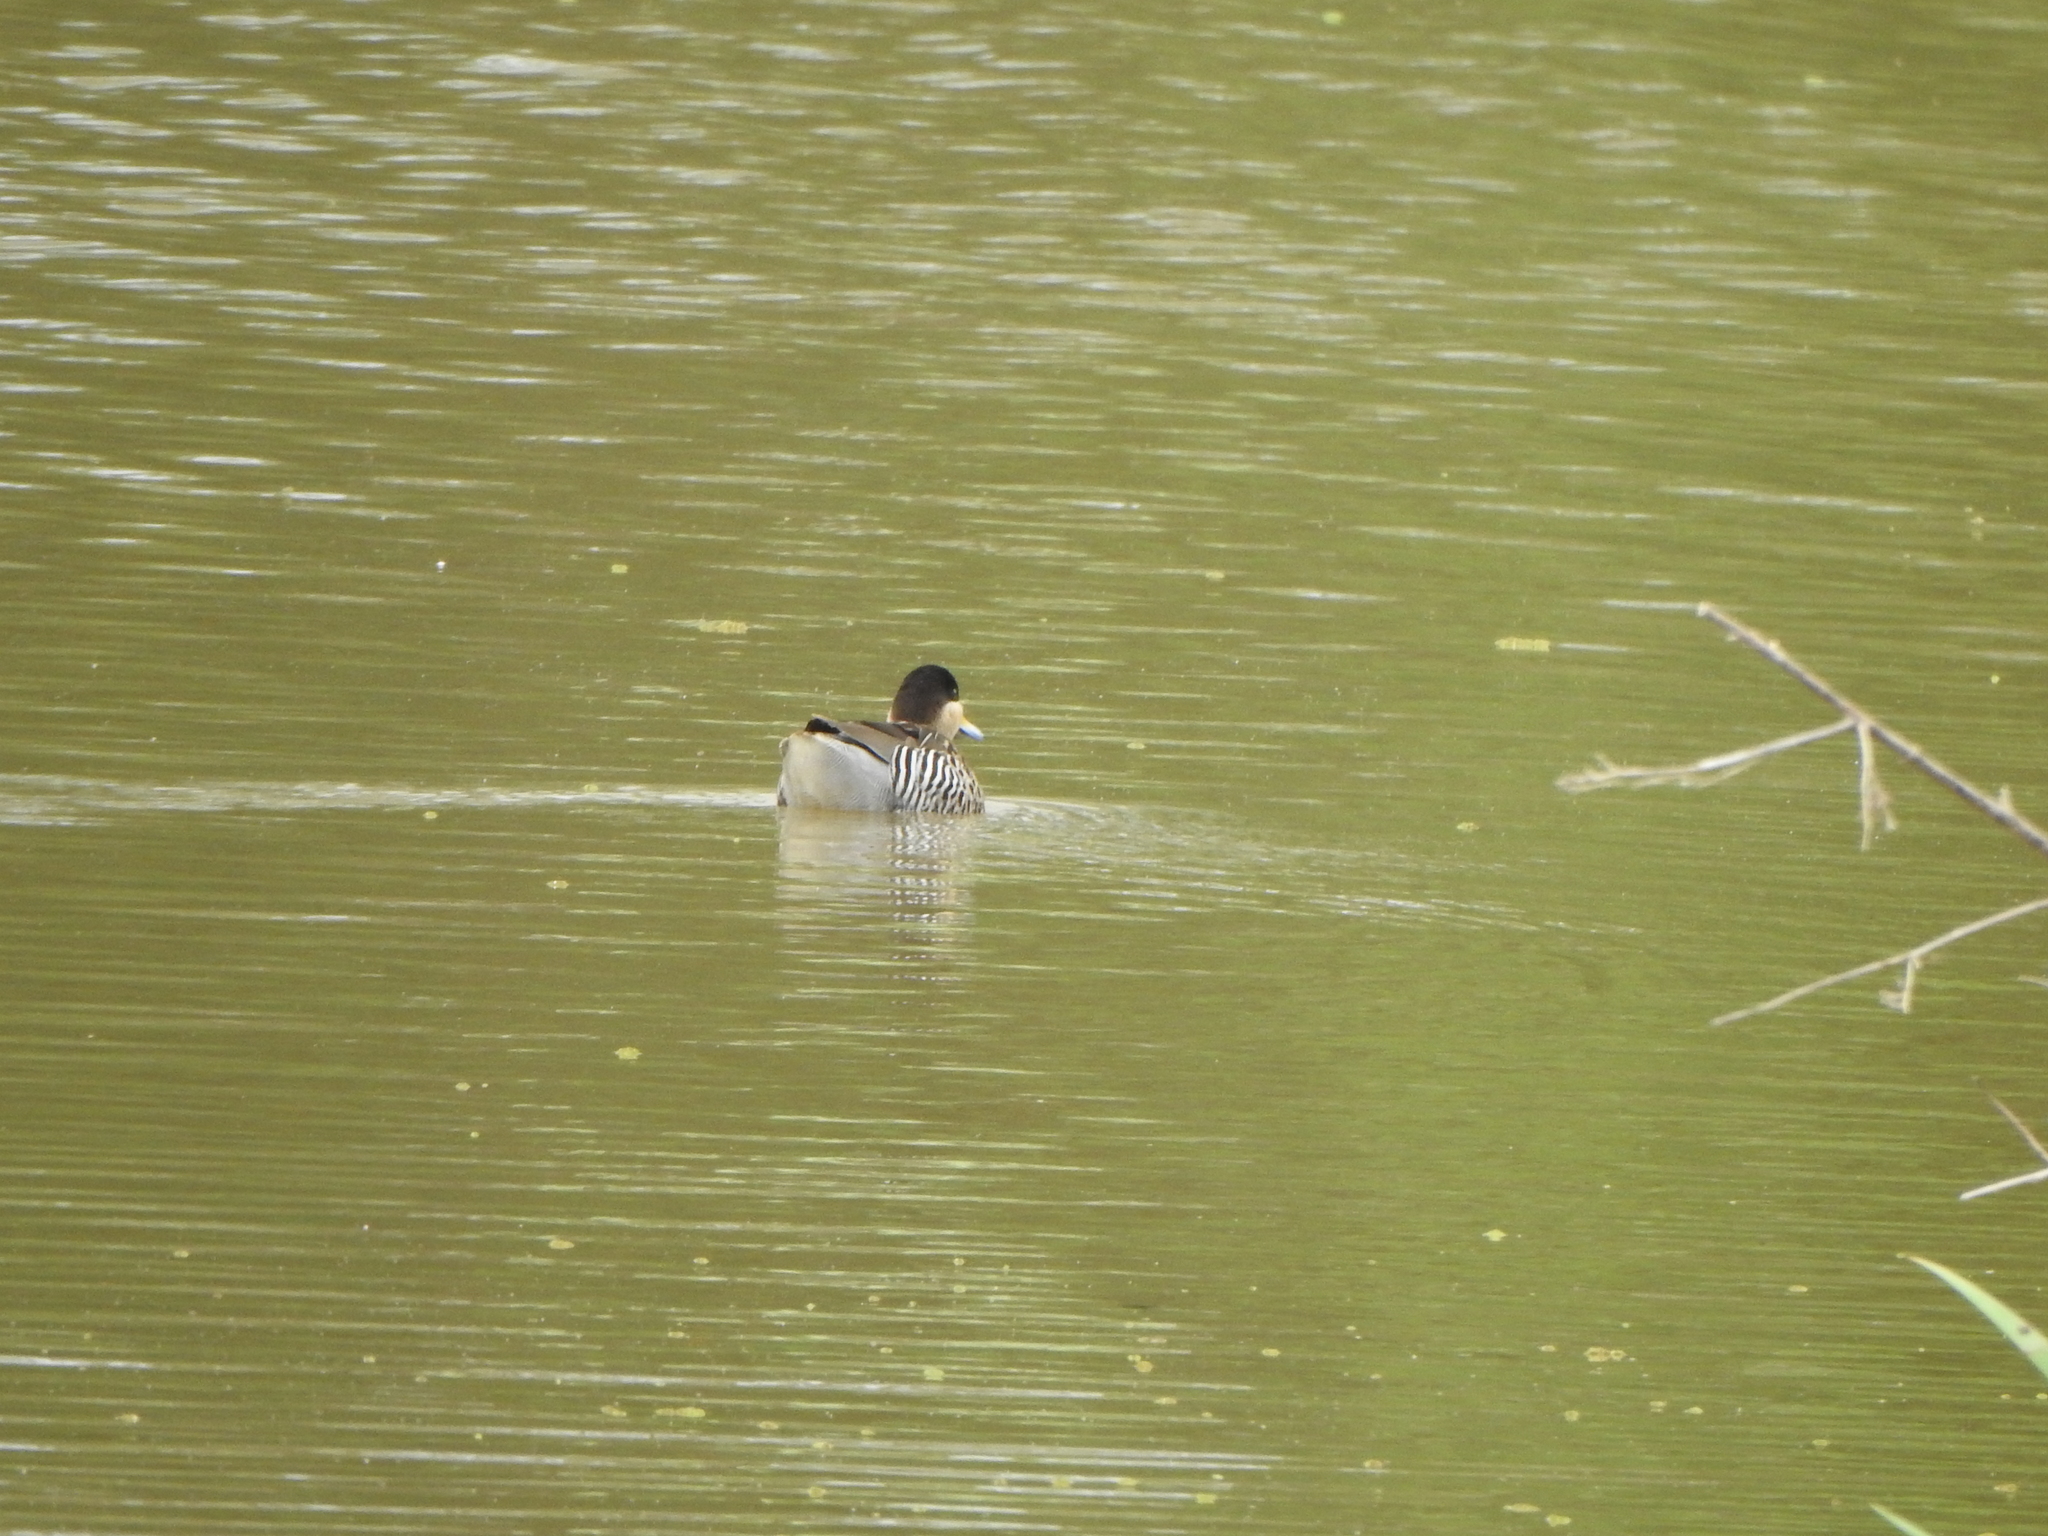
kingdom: Animalia
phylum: Chordata
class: Aves
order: Anseriformes
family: Anatidae
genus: Spatula
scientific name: Spatula versicolor
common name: Silver teal
